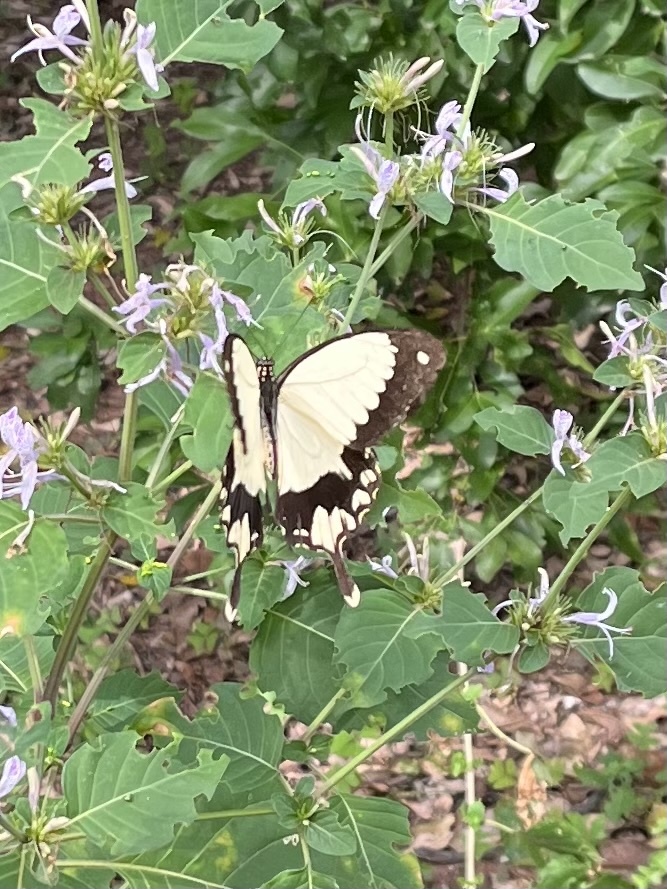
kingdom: Animalia
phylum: Arthropoda
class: Insecta
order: Lepidoptera
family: Papilionidae
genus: Papilio
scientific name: Papilio dardanus
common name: Flying handkerchief
